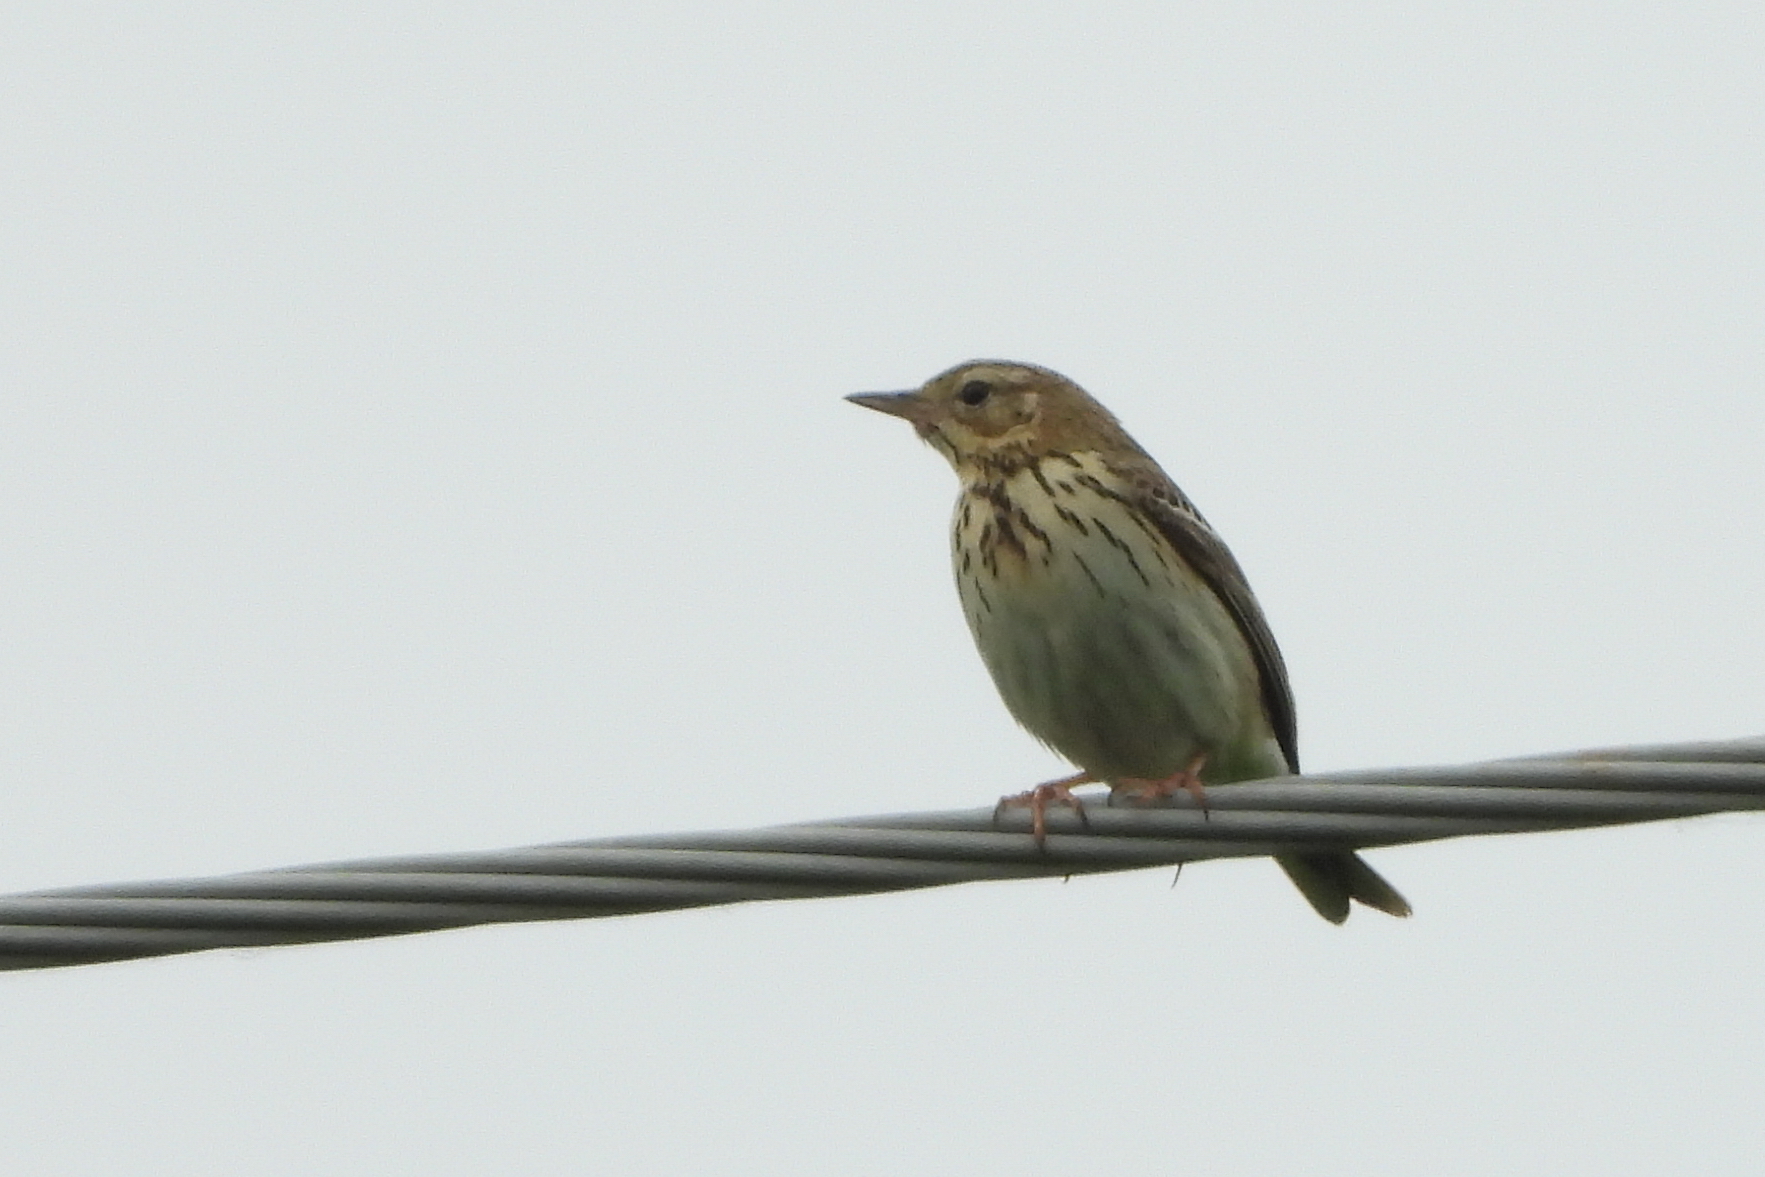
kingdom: Animalia
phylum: Chordata
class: Aves
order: Passeriformes
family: Motacillidae
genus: Anthus
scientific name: Anthus trivialis
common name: Tree pipit
